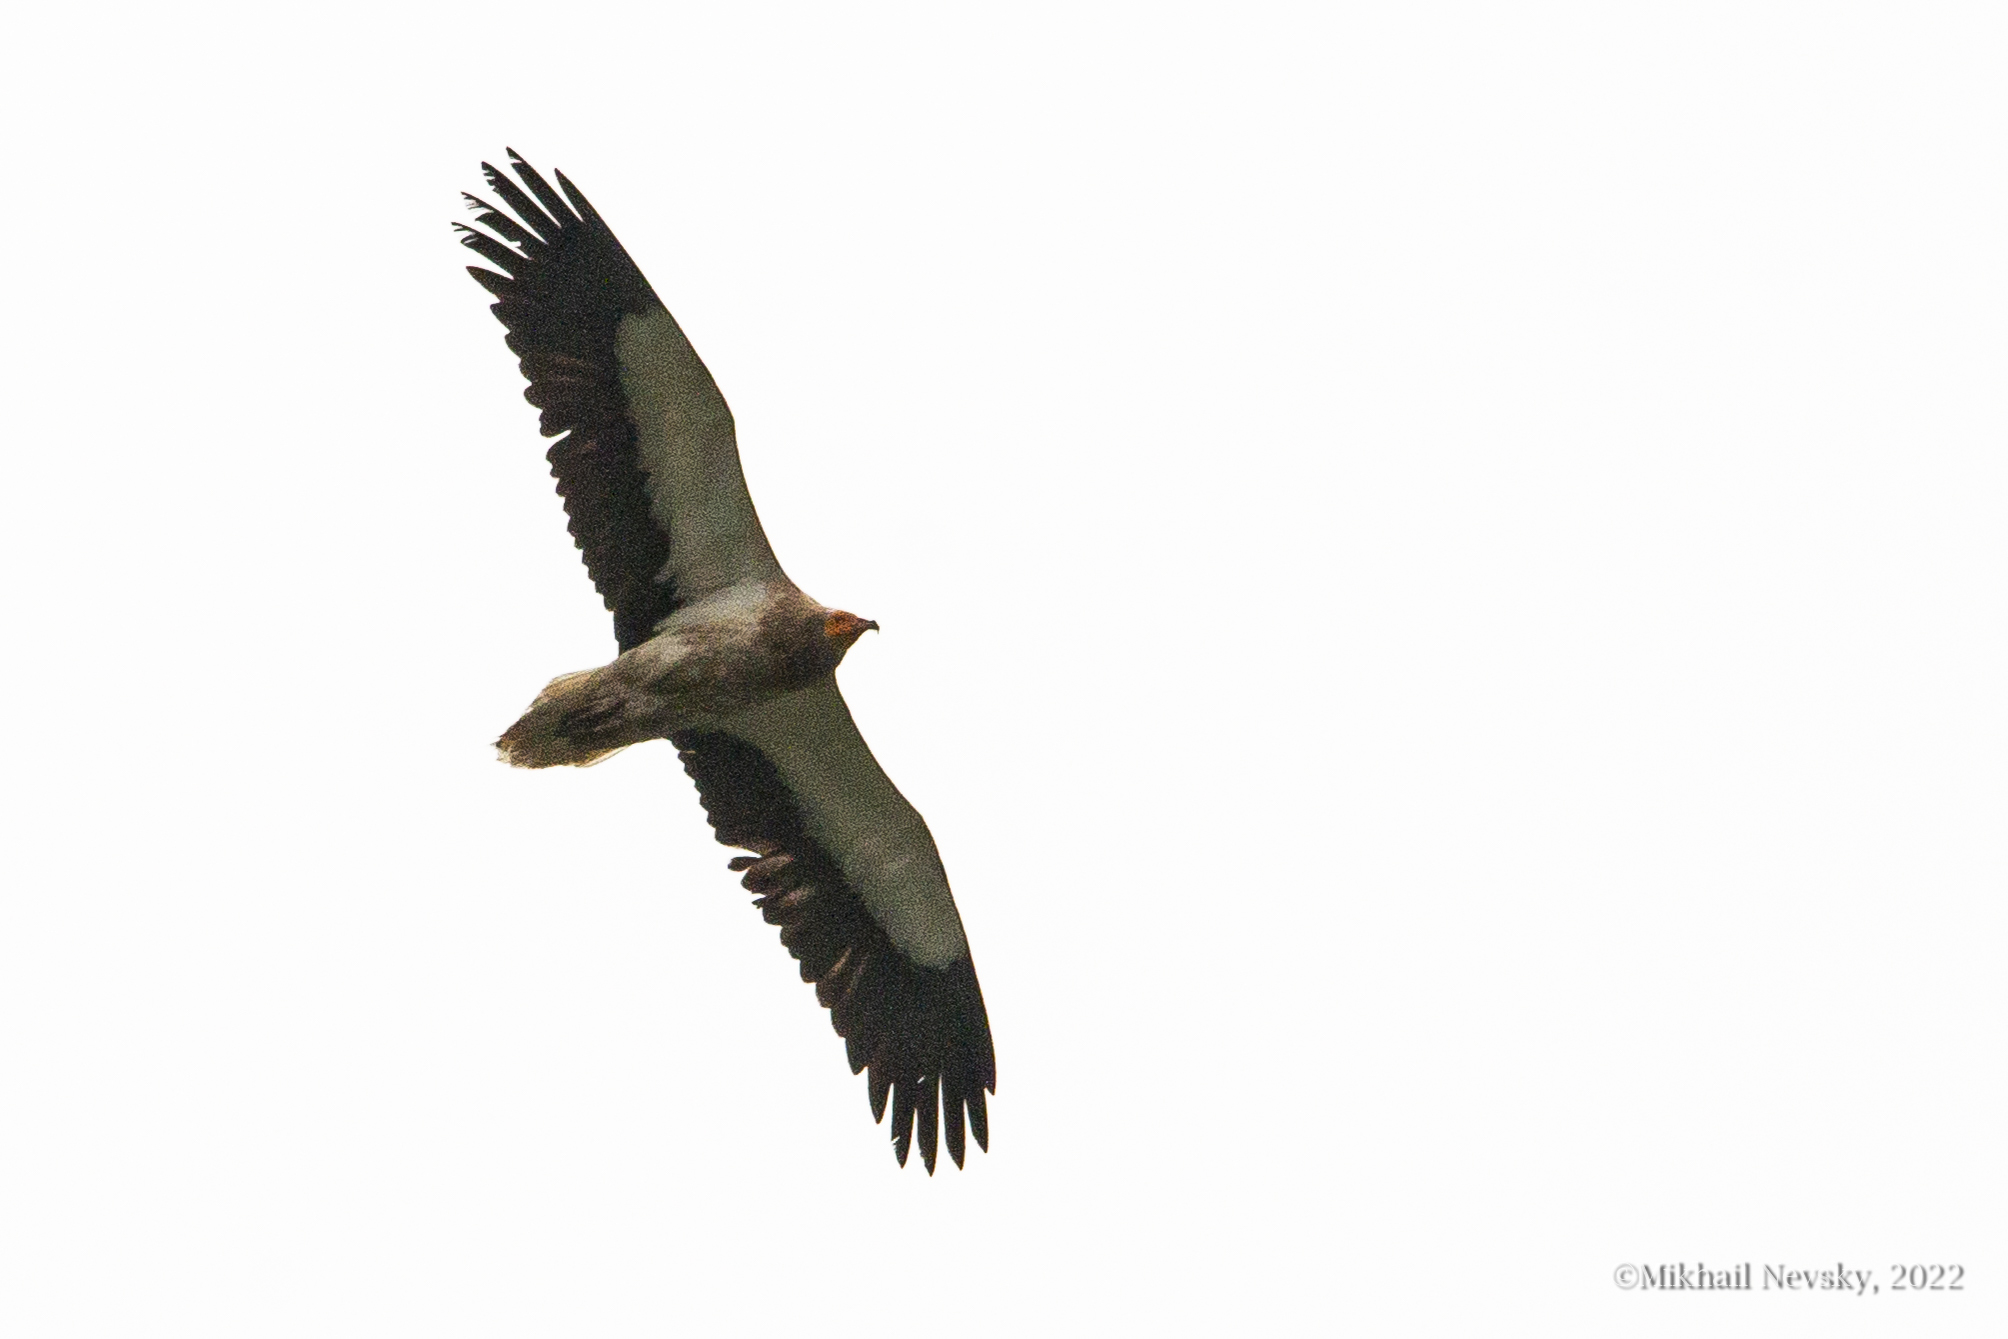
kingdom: Animalia
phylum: Chordata
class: Aves
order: Accipitriformes
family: Accipitridae
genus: Neophron
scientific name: Neophron percnopterus
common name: Egyptian vulture
